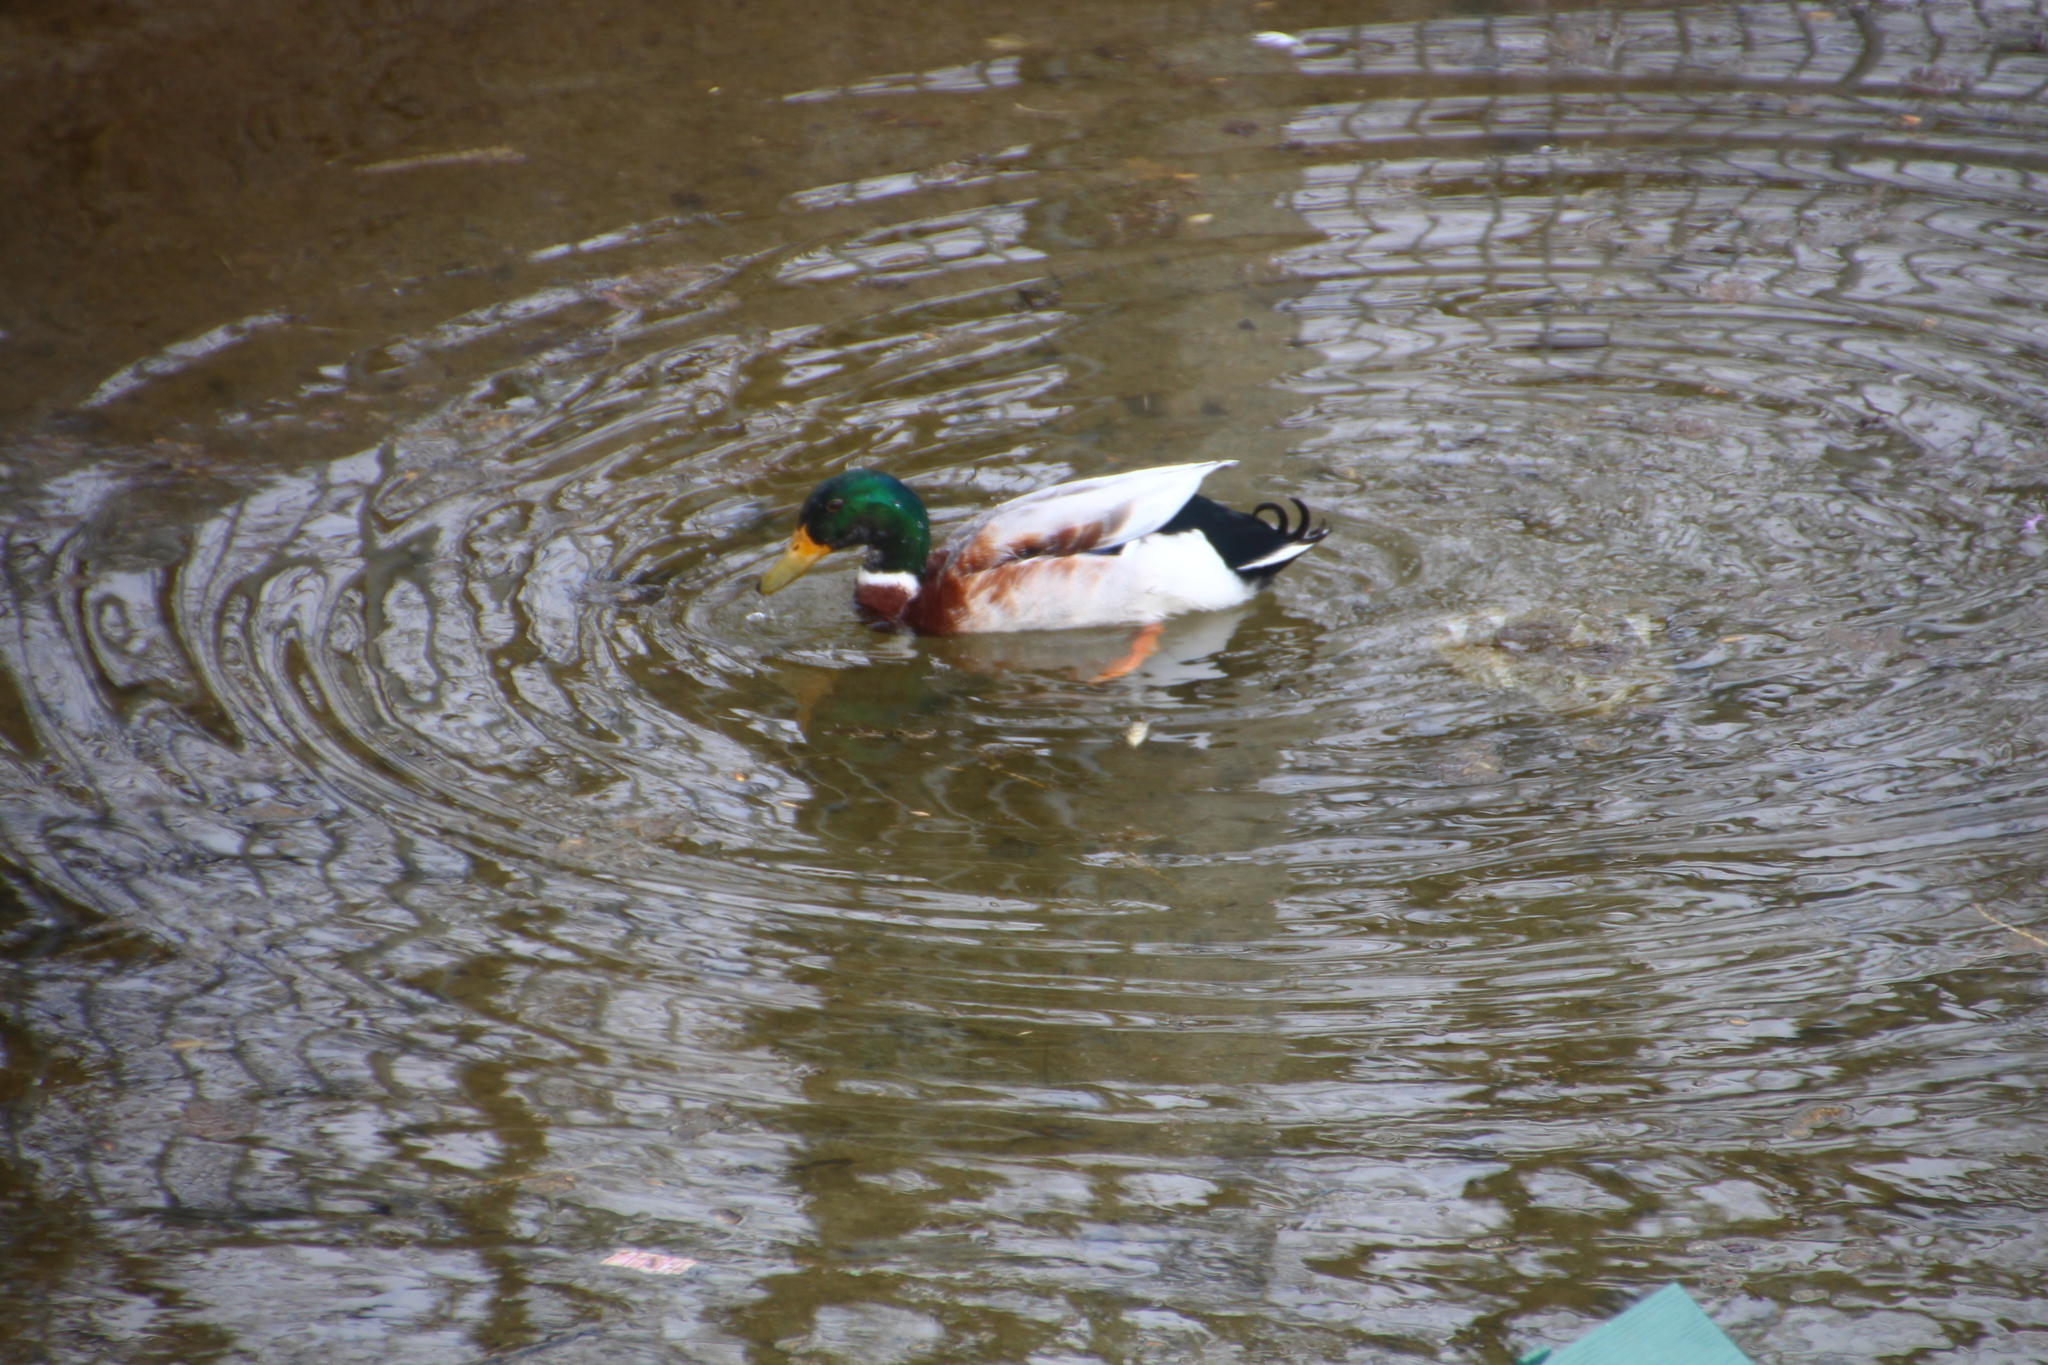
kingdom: Animalia
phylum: Chordata
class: Aves
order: Anseriformes
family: Anatidae
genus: Anas
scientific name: Anas platyrhynchos
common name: Mallard
